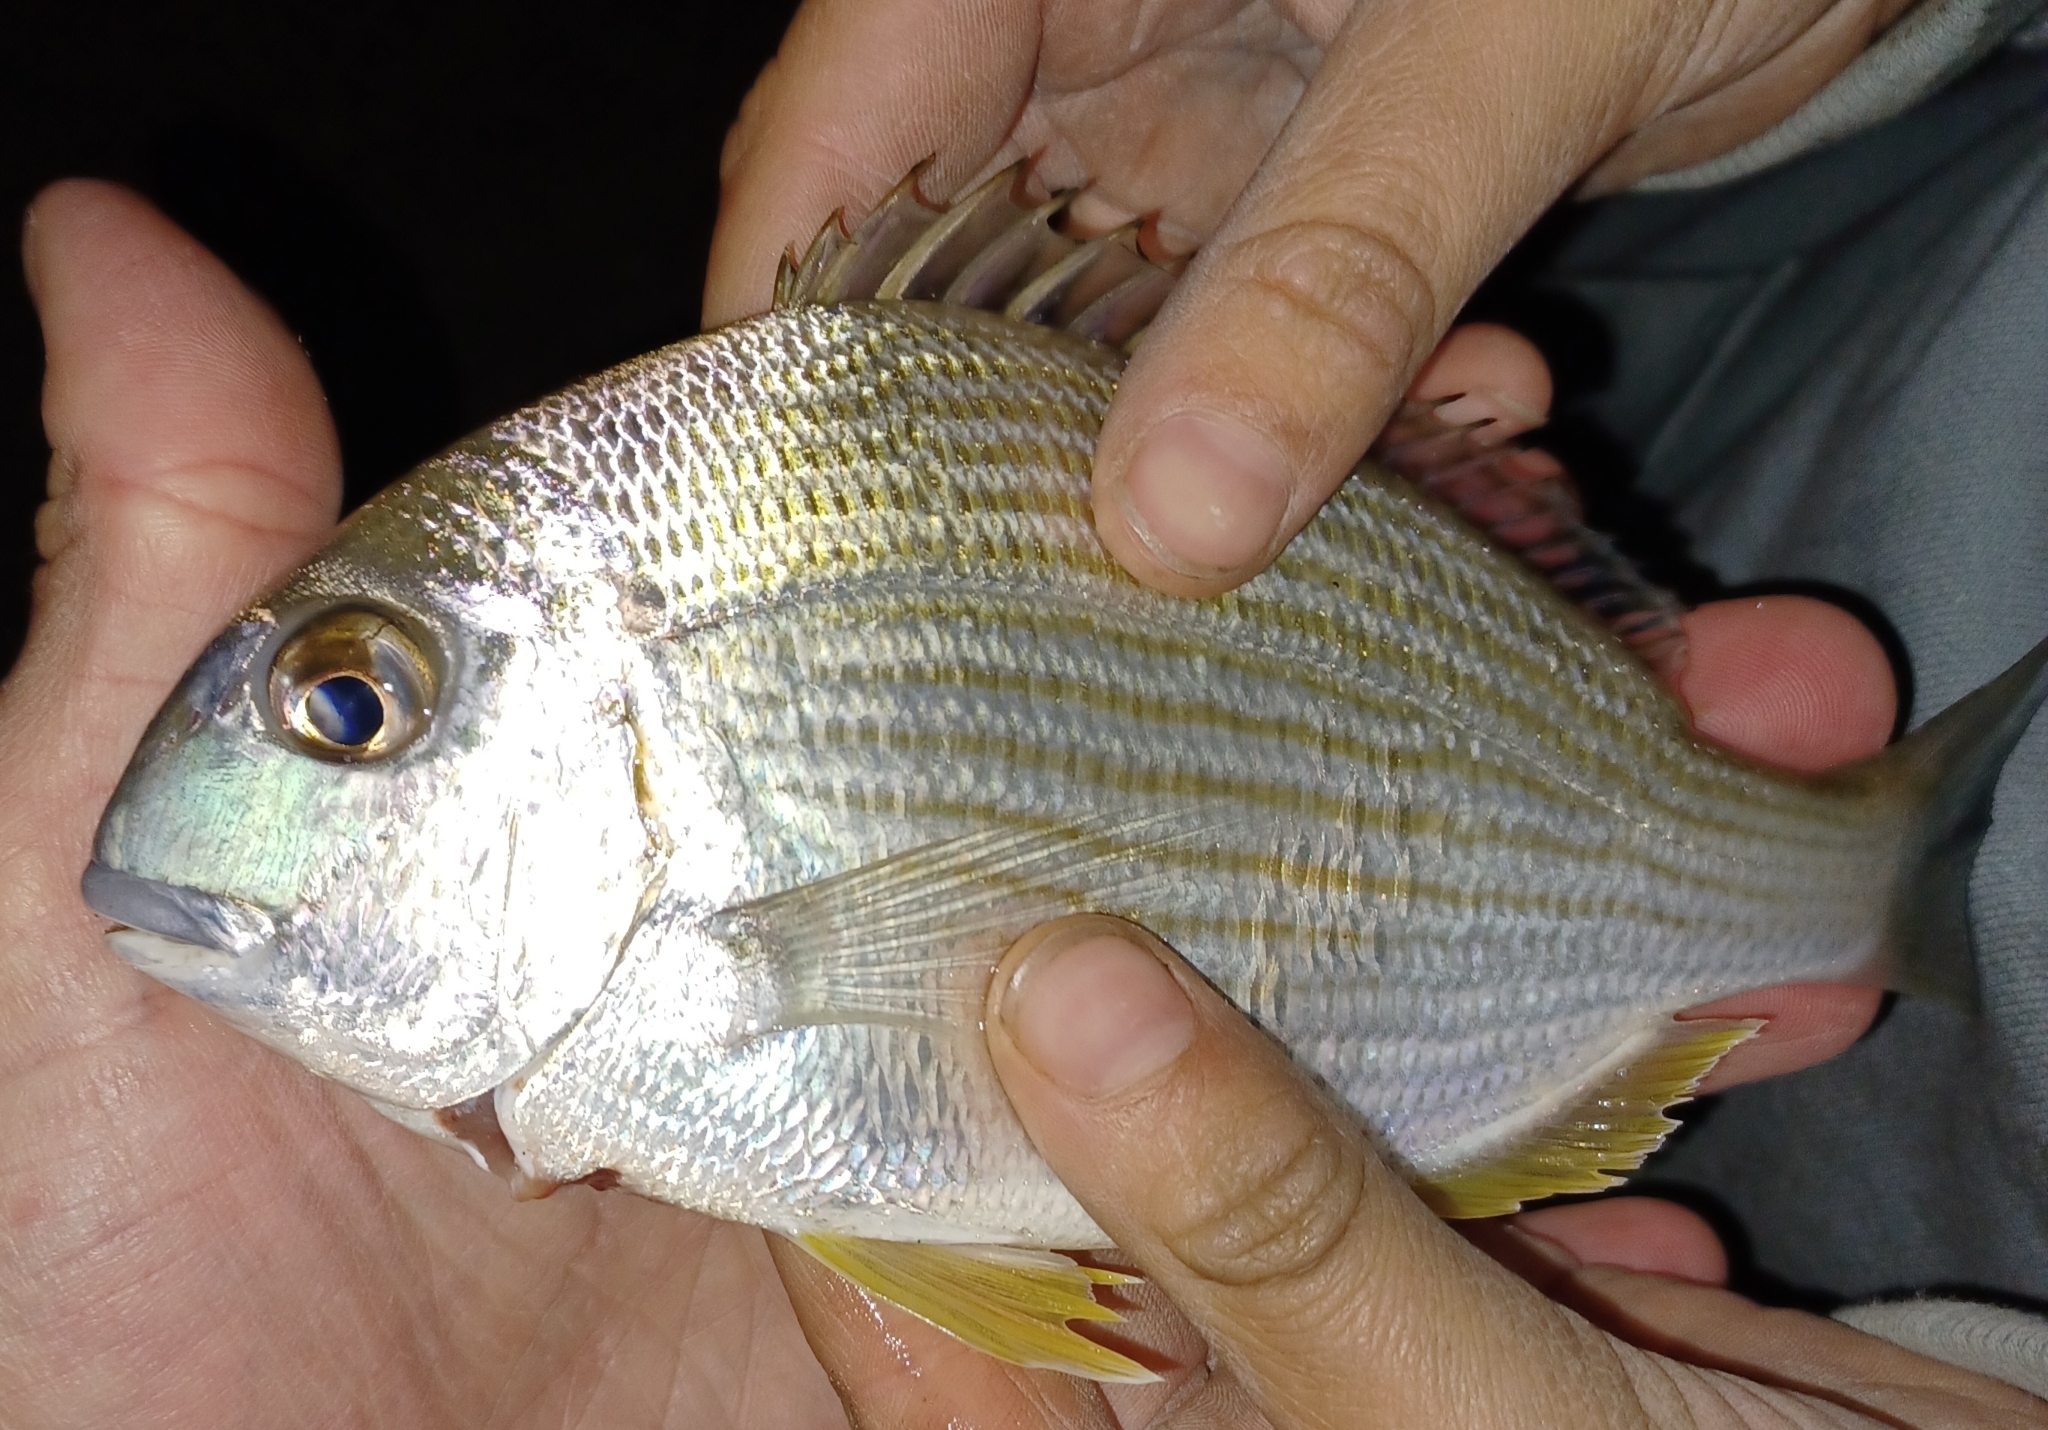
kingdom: Animalia
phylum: Chordata
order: Perciformes
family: Sparidae
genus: Rhabdosargus
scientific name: Rhabdosargus sarba
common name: Goldlined seabream
